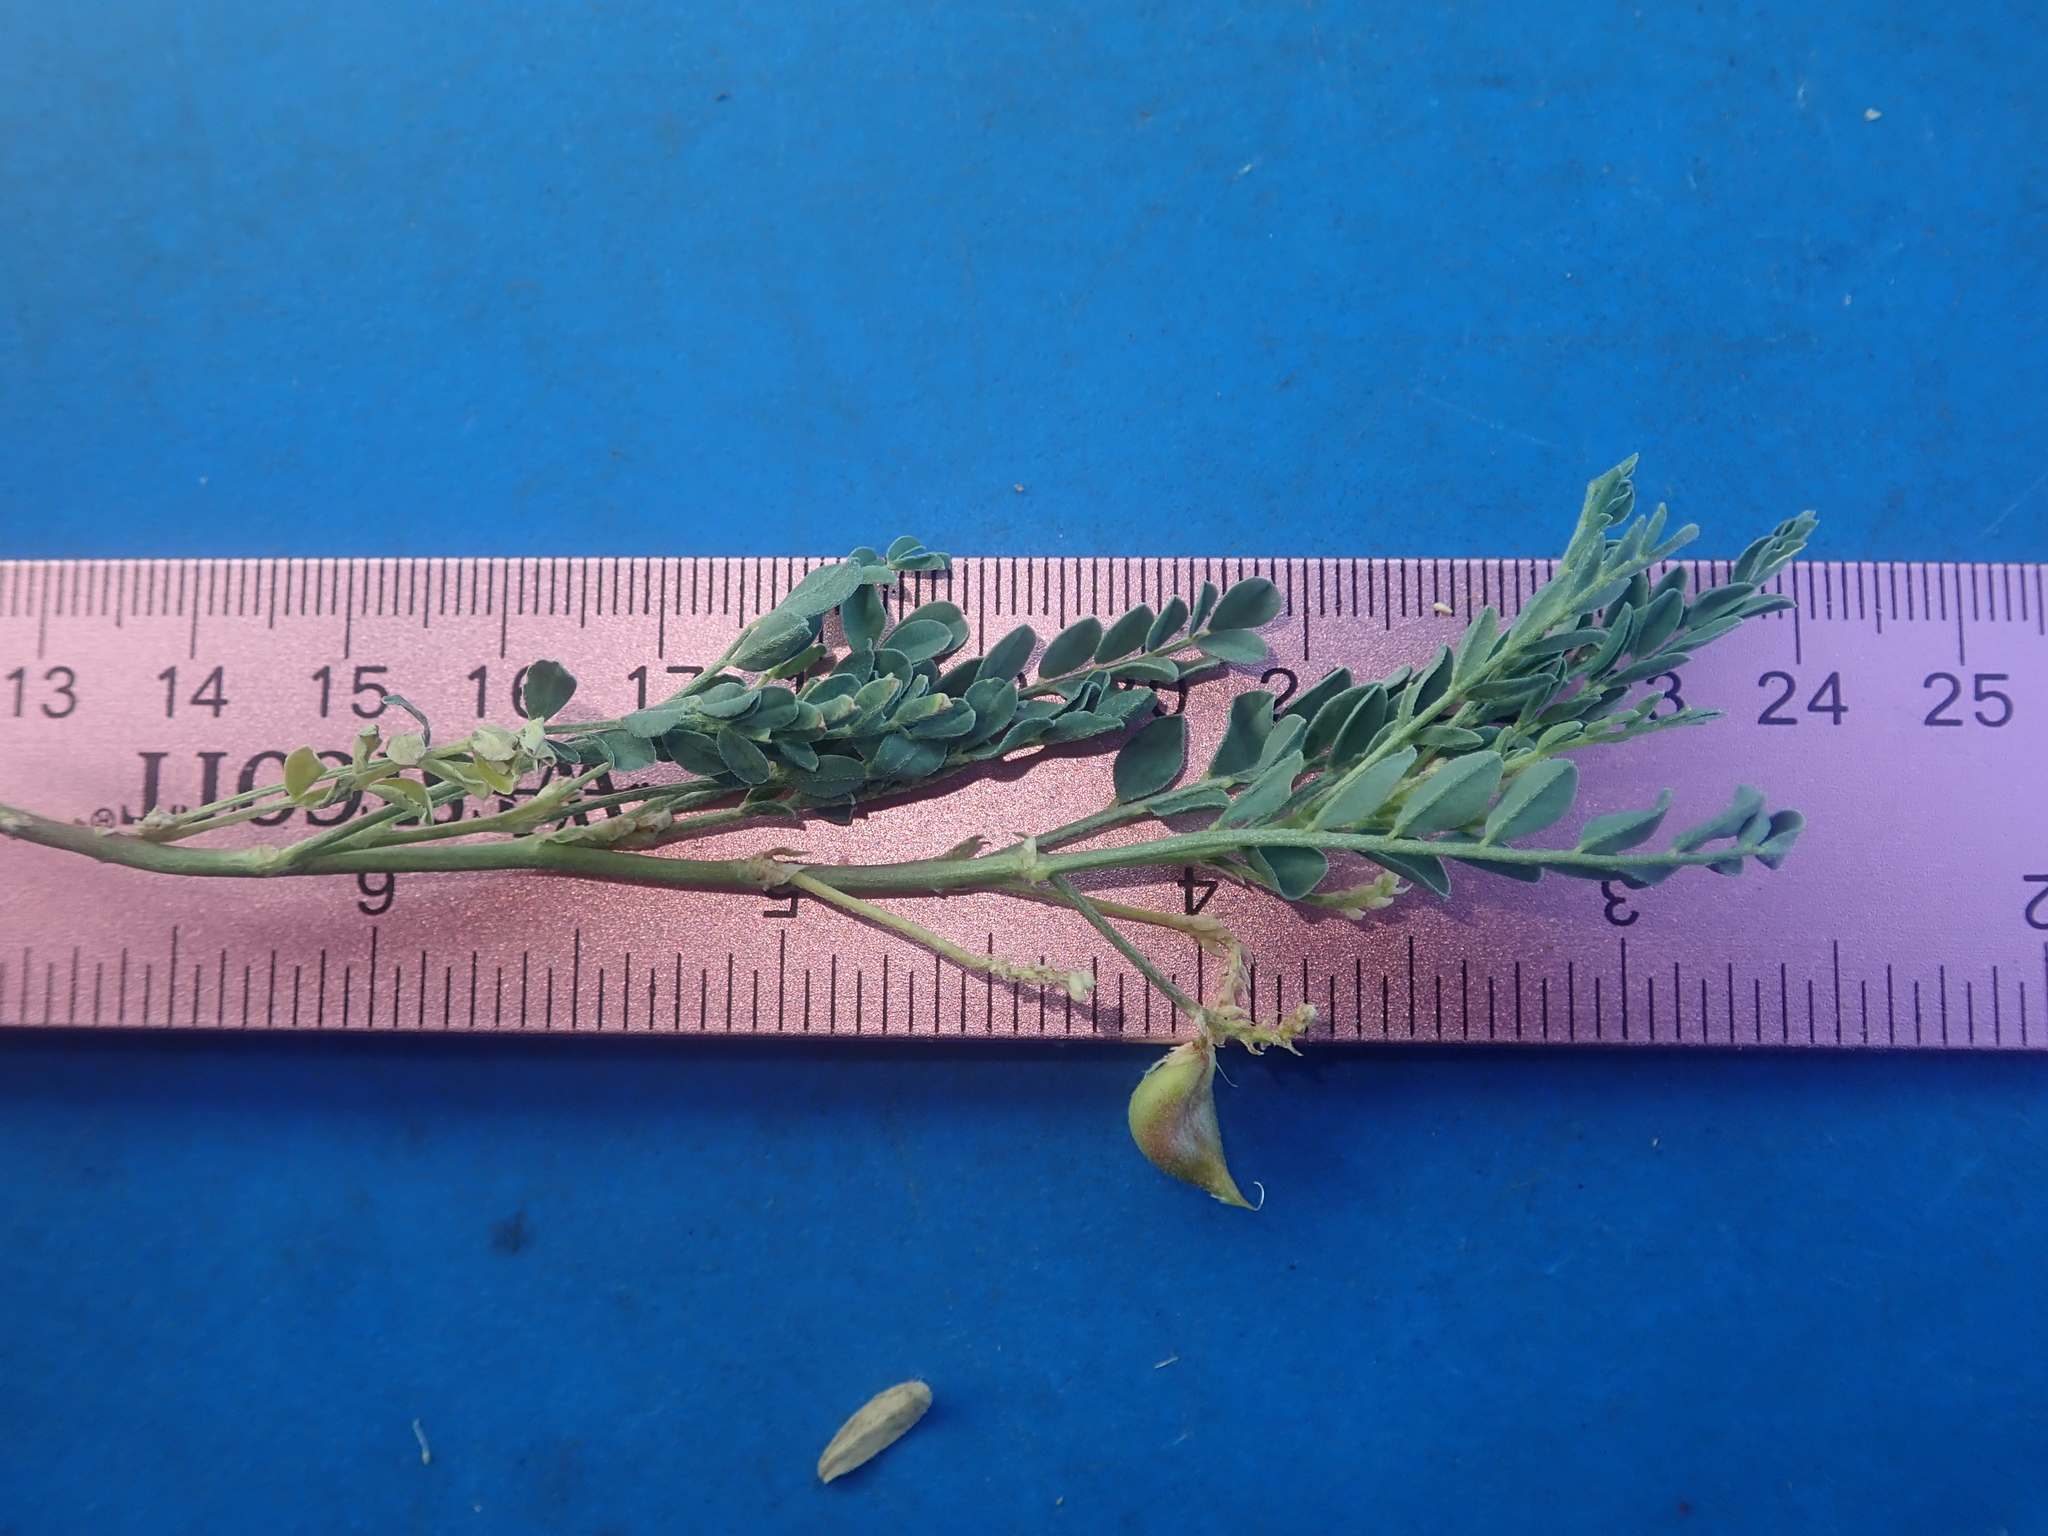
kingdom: Plantae
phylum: Tracheophyta
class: Magnoliopsida
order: Fabales
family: Fabaceae
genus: Astragalus
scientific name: Astragalus lentiginosus
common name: Freckled milkvetch
